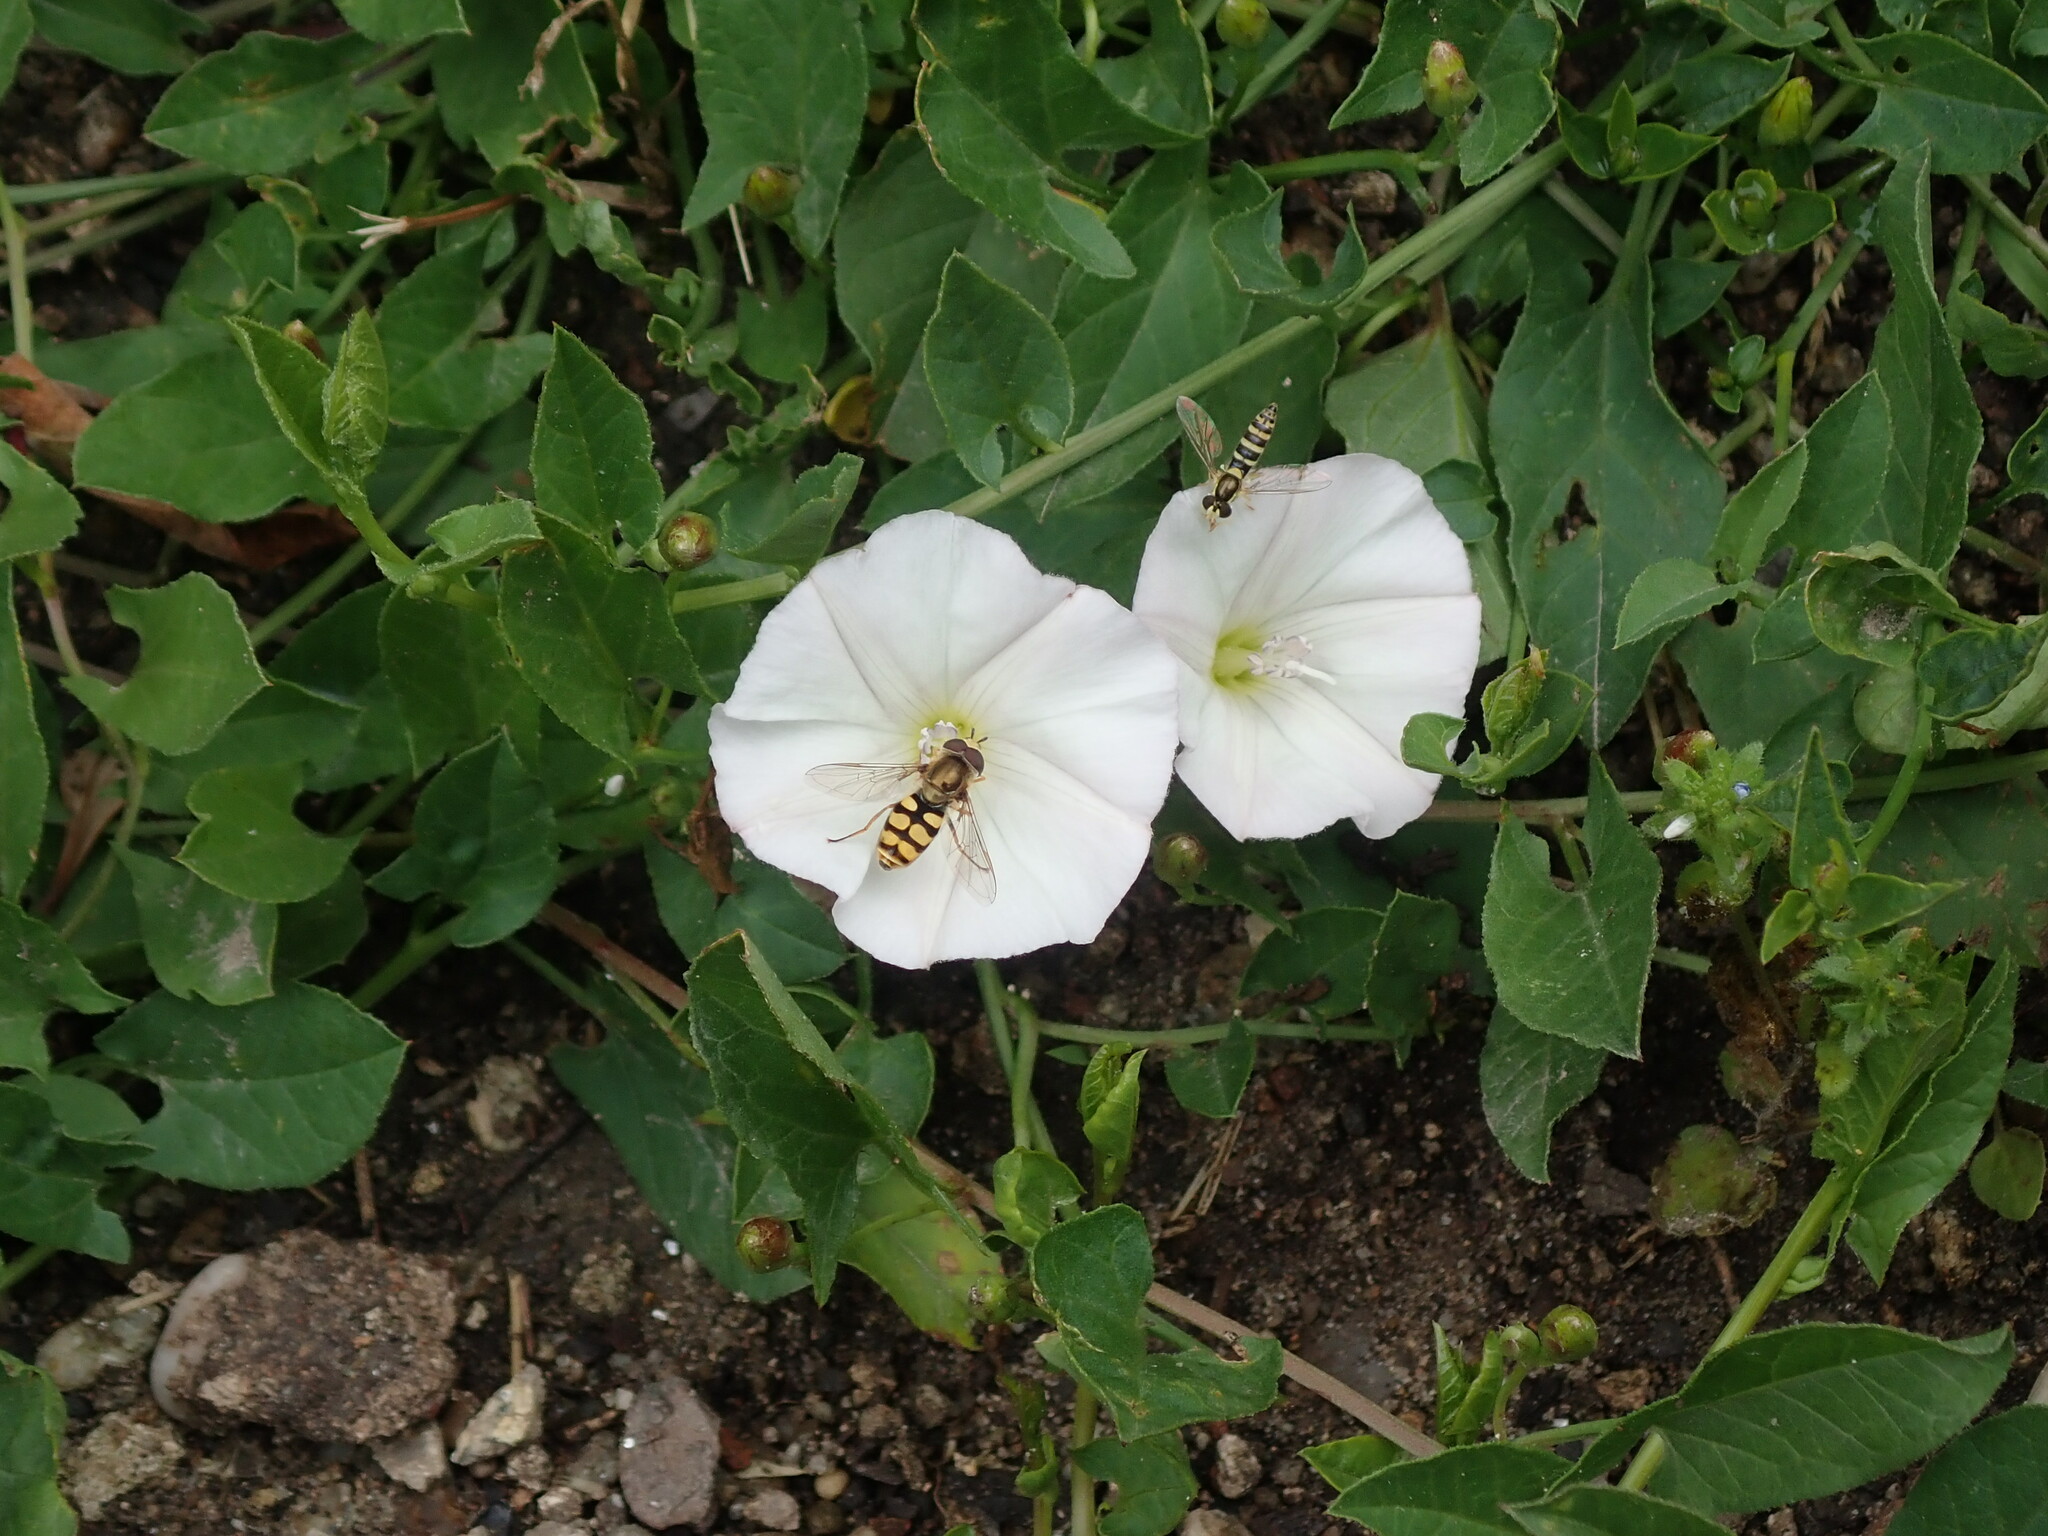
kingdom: Animalia
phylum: Arthropoda
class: Insecta
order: Diptera
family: Syrphidae
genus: Sphaerophoria
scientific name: Sphaerophoria scripta
